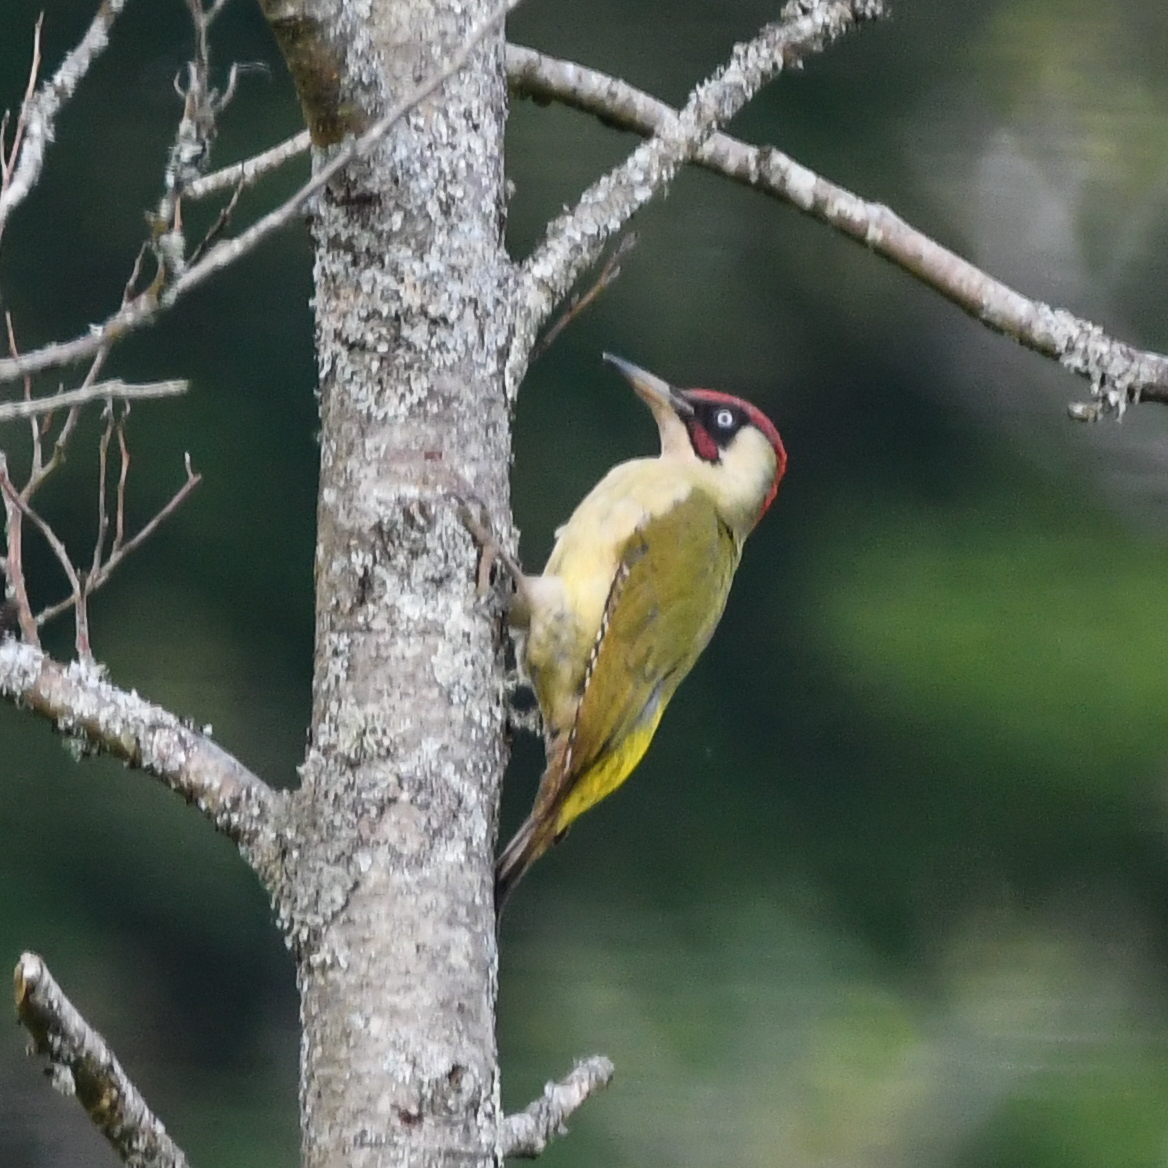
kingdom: Animalia
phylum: Chordata
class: Aves
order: Piciformes
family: Picidae
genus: Picus
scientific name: Picus viridis
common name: European green woodpecker
